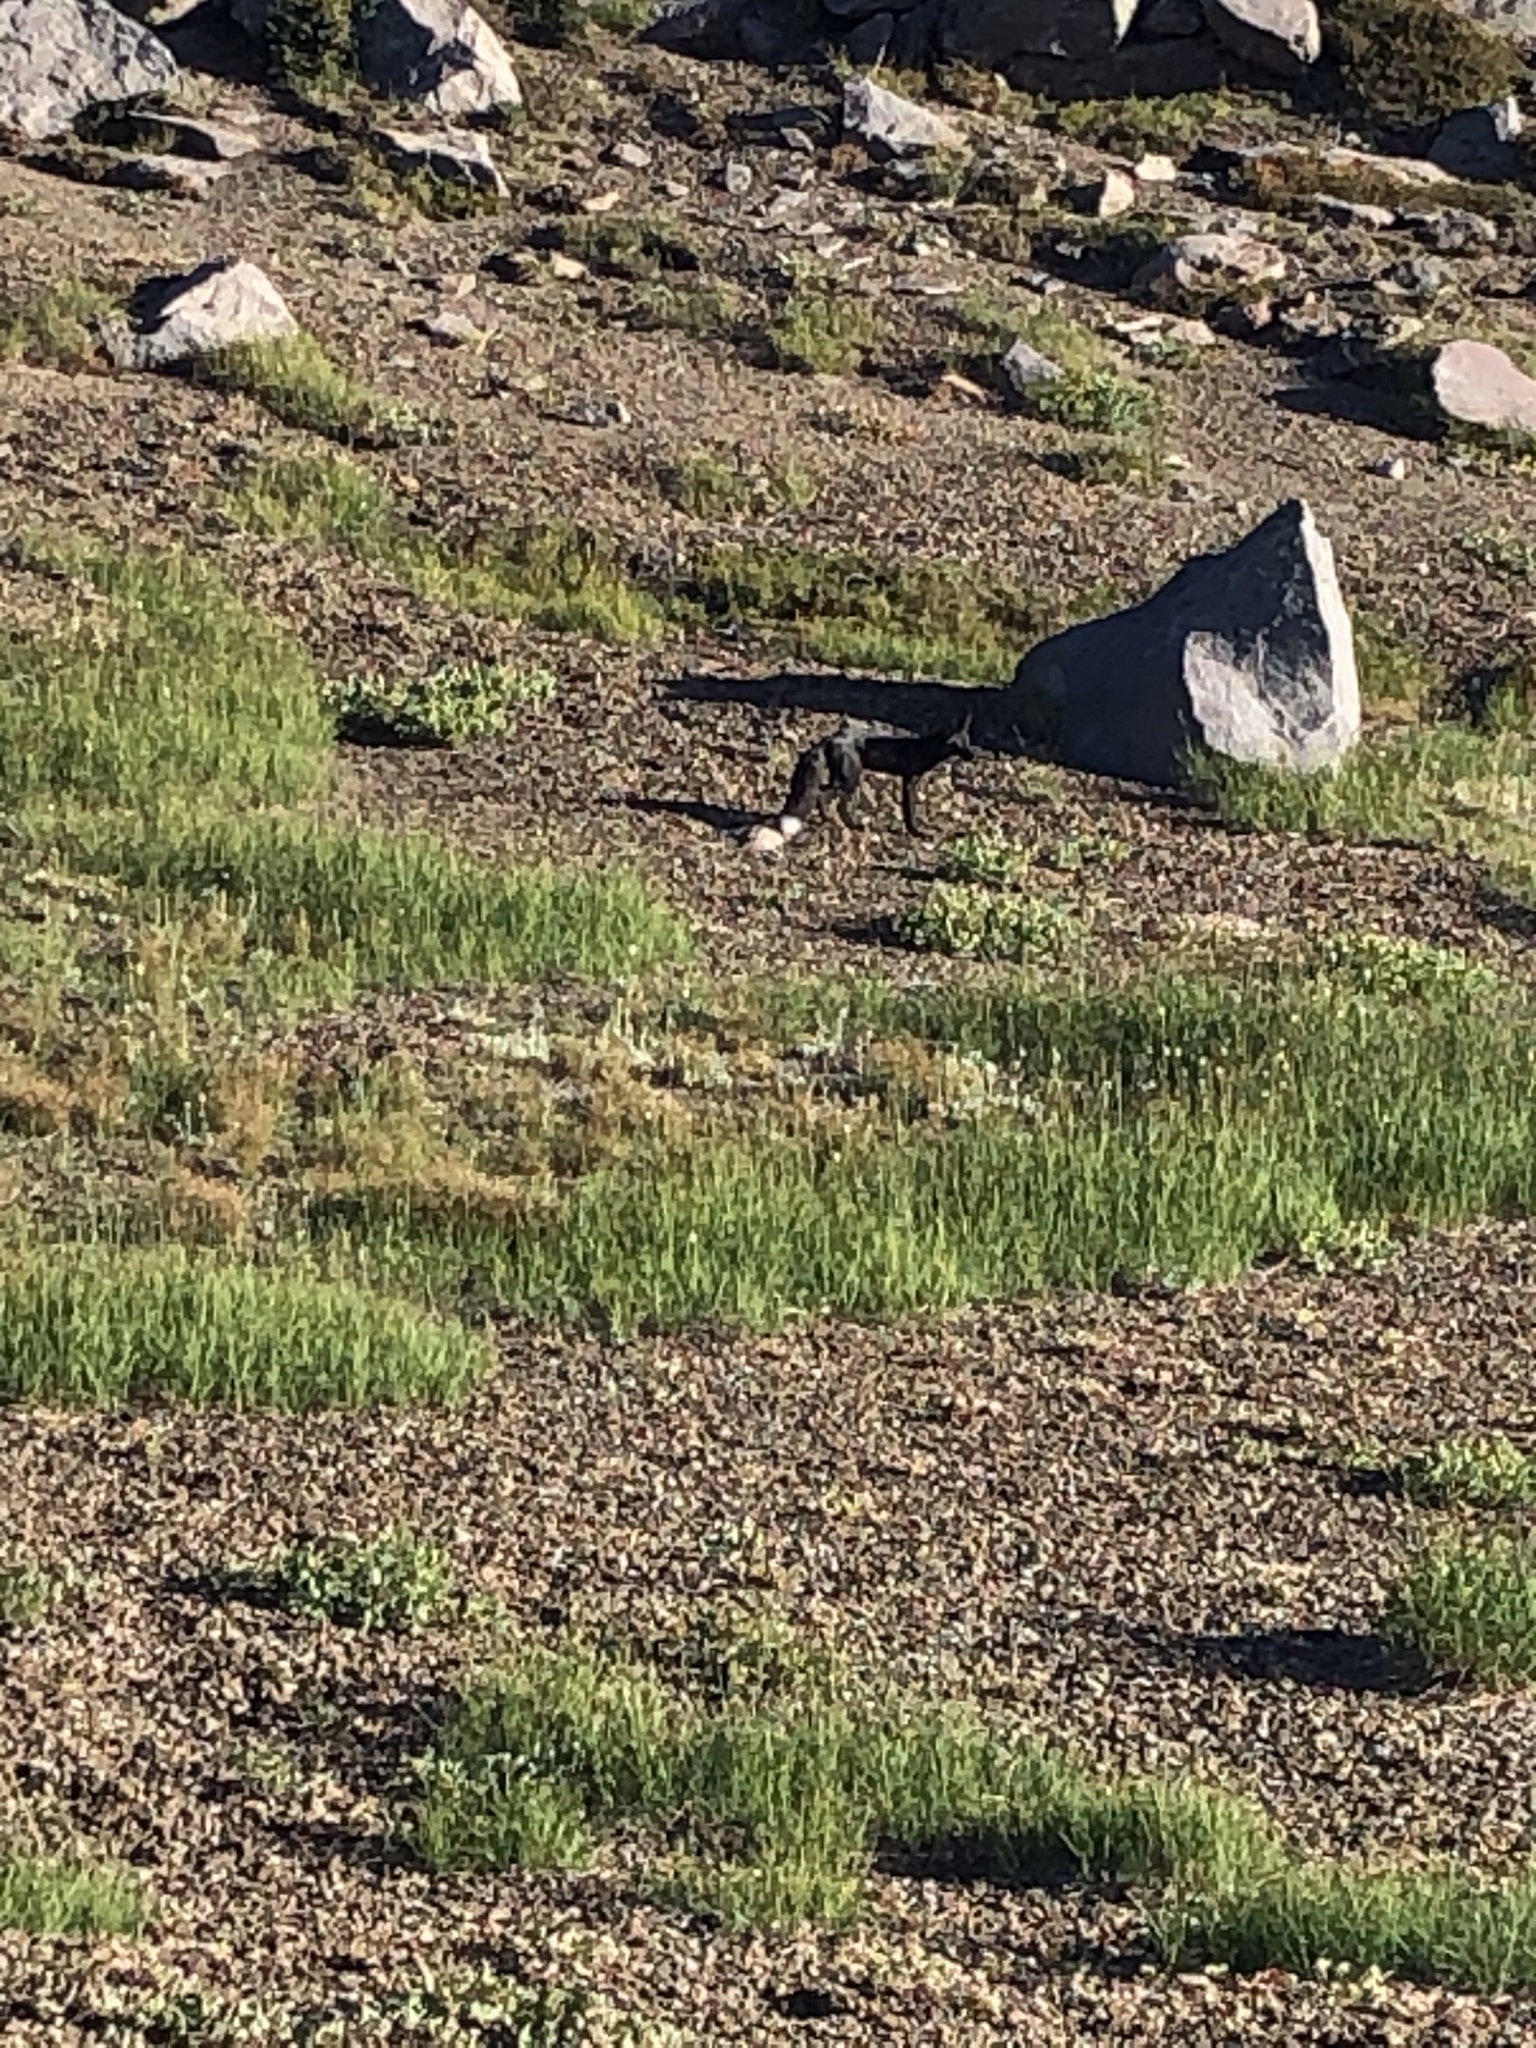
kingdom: Animalia
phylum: Chordata
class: Mammalia
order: Carnivora
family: Canidae
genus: Vulpes
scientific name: Vulpes vulpes
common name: Red fox
